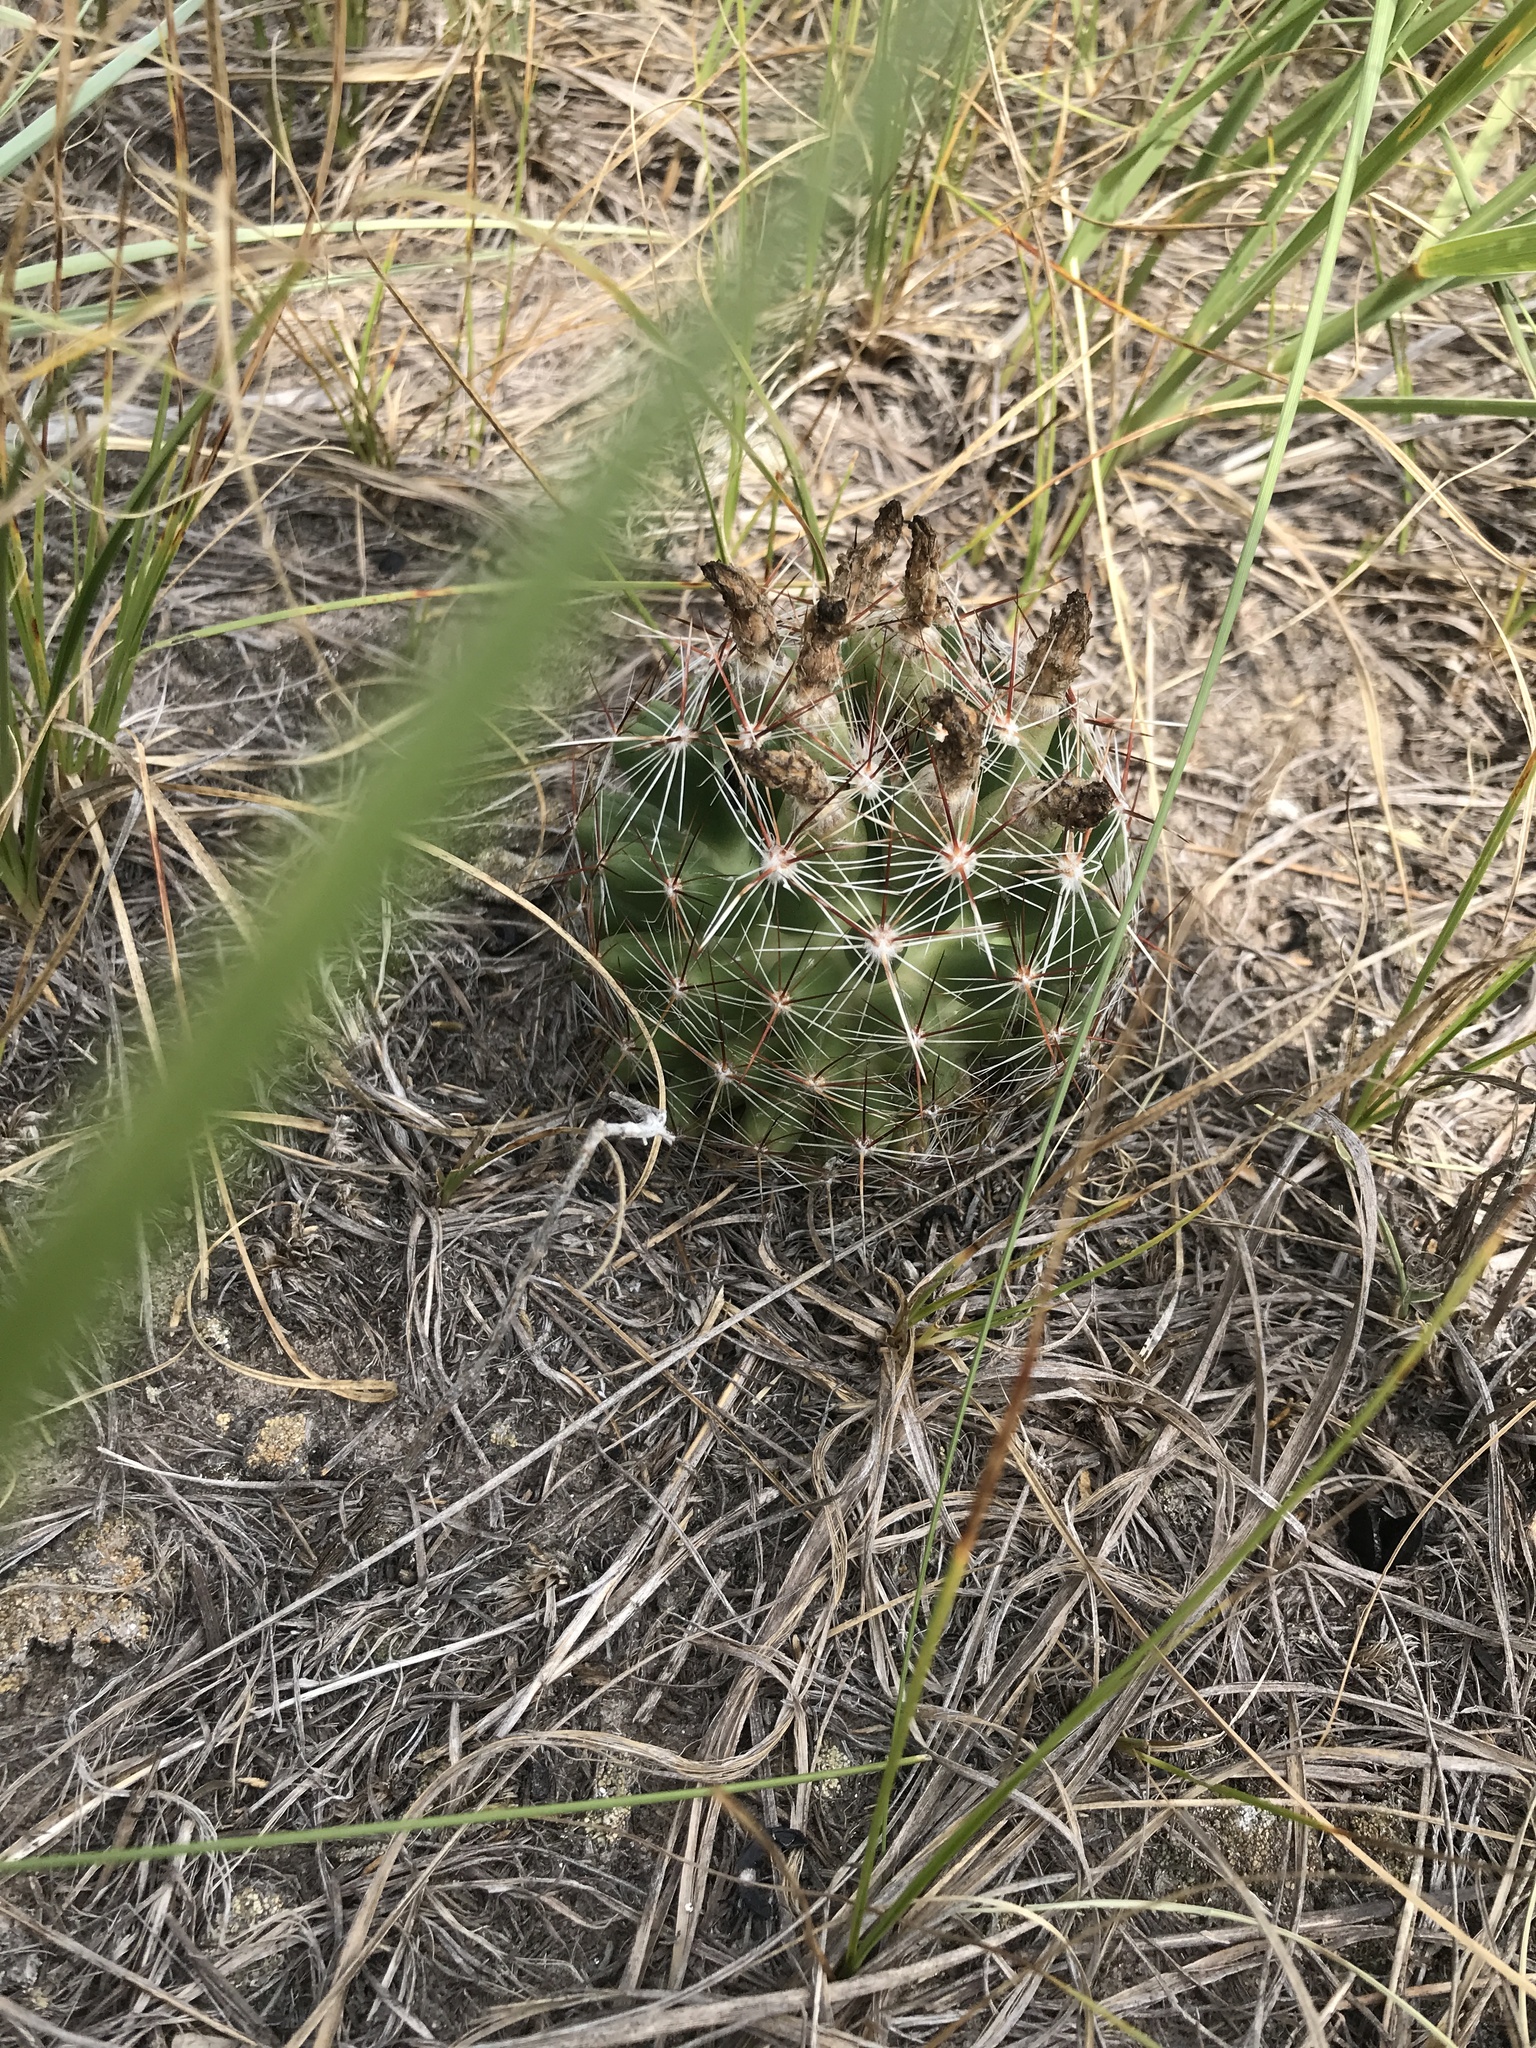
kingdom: Plantae
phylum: Tracheophyta
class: Magnoliopsida
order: Caryophyllales
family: Cactaceae
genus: Pelecyphora
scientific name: Pelecyphora vivipara
